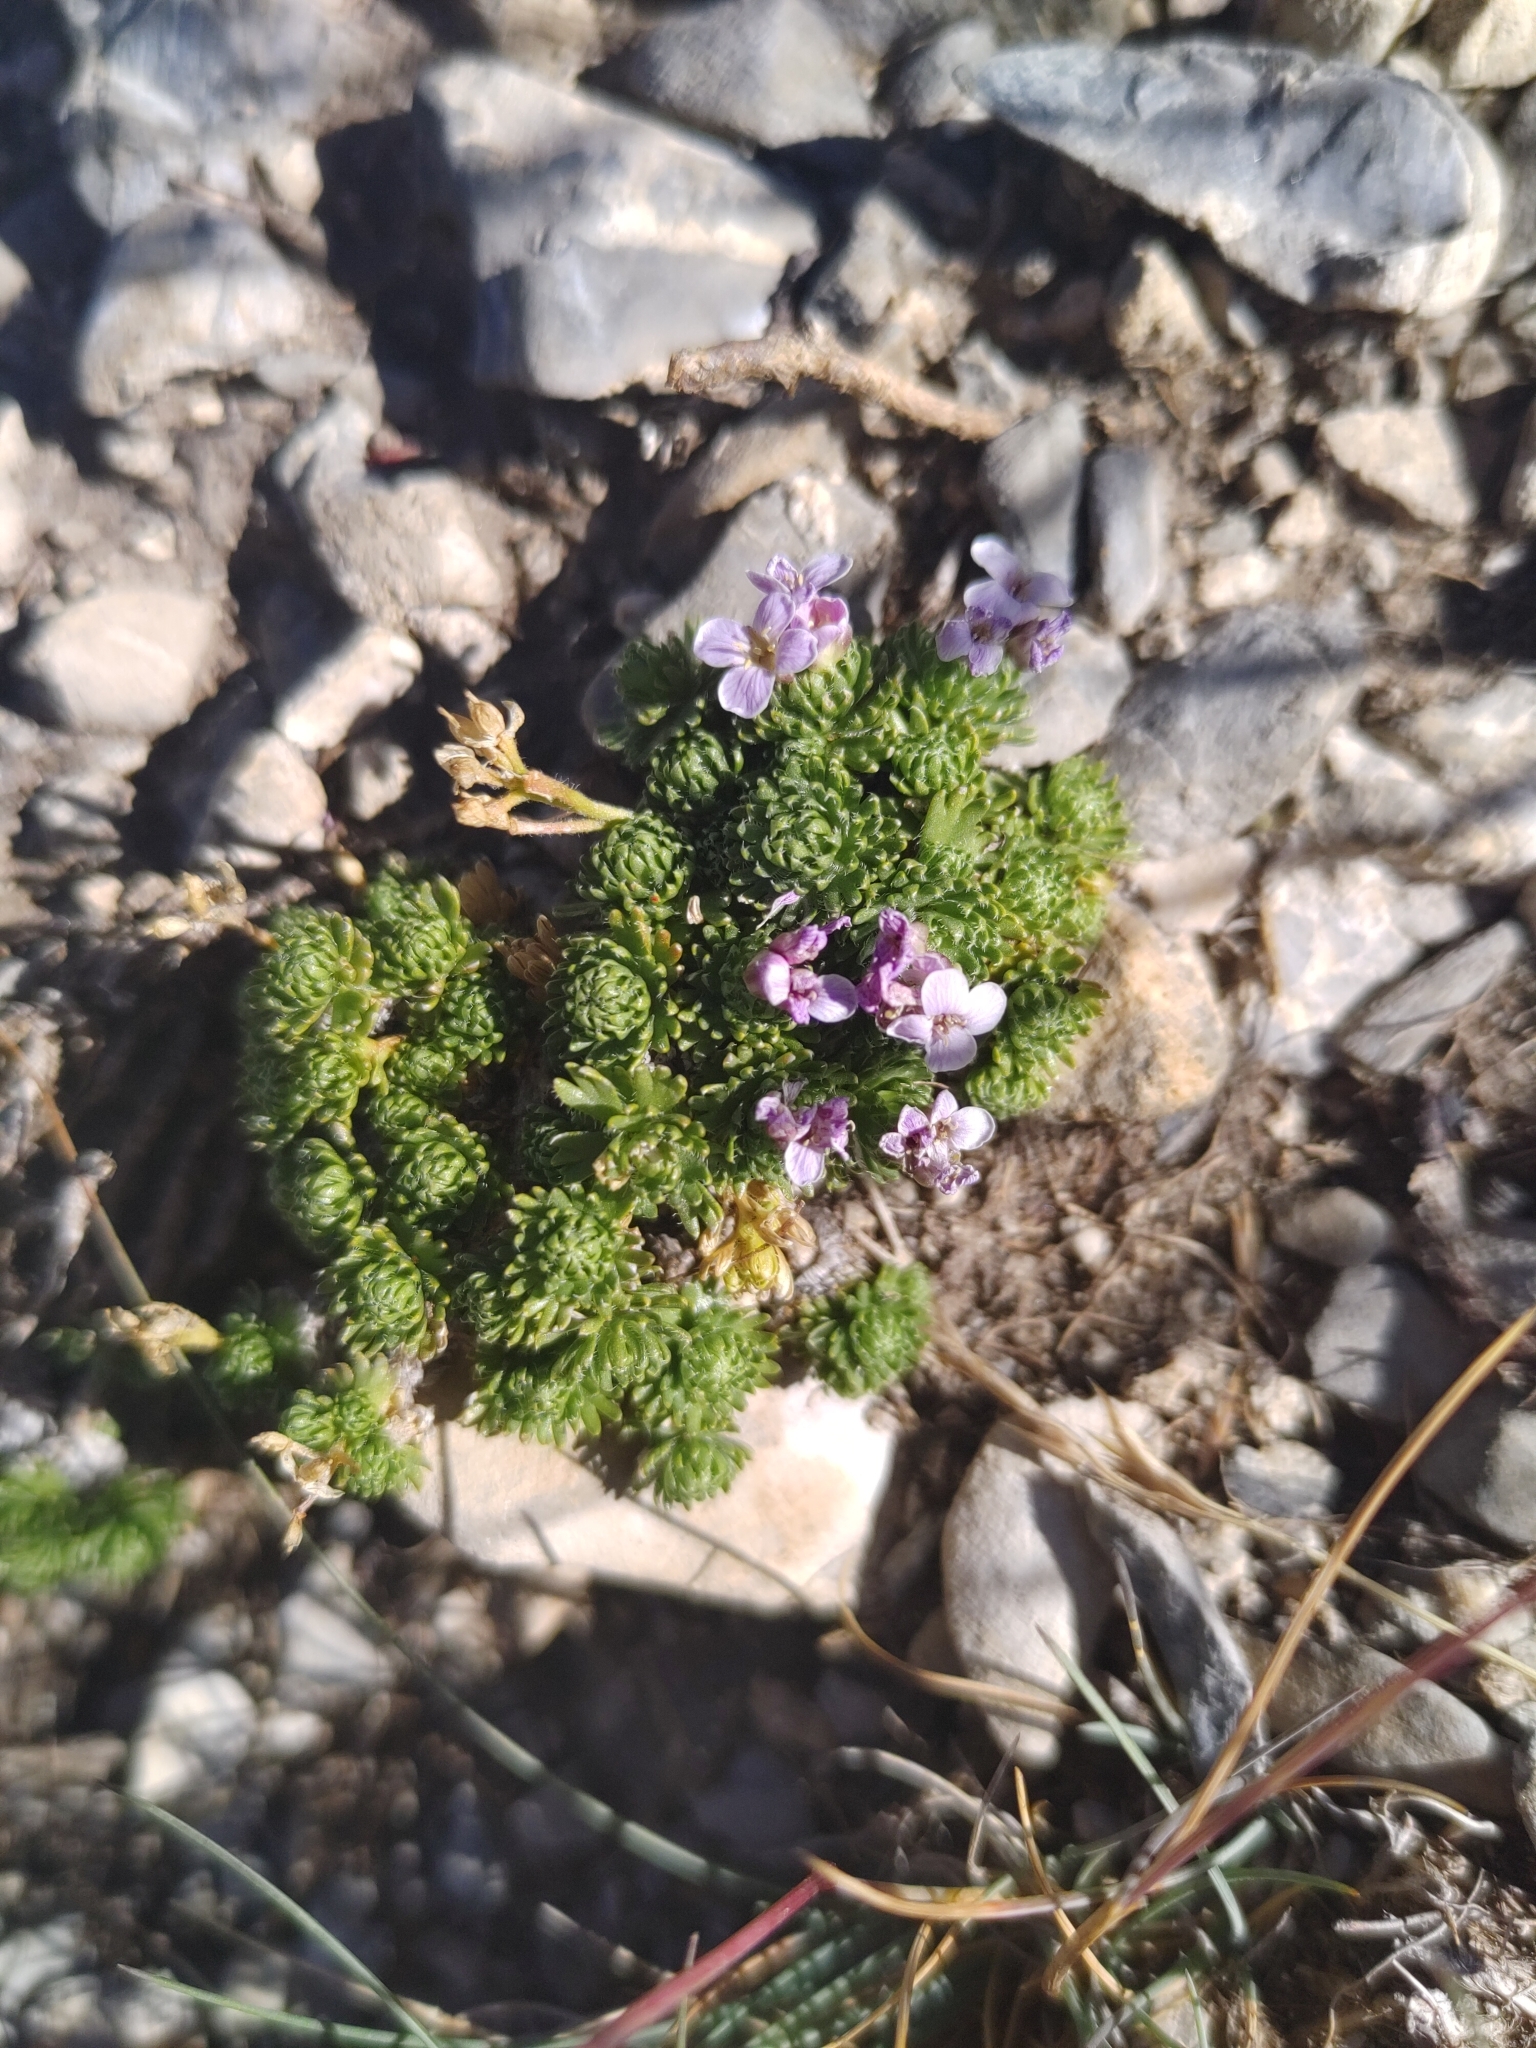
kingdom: Plantae
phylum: Tracheophyta
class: Magnoliopsida
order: Brassicales
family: Brassicaceae
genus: Petrocallis
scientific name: Petrocallis pyrenaica
